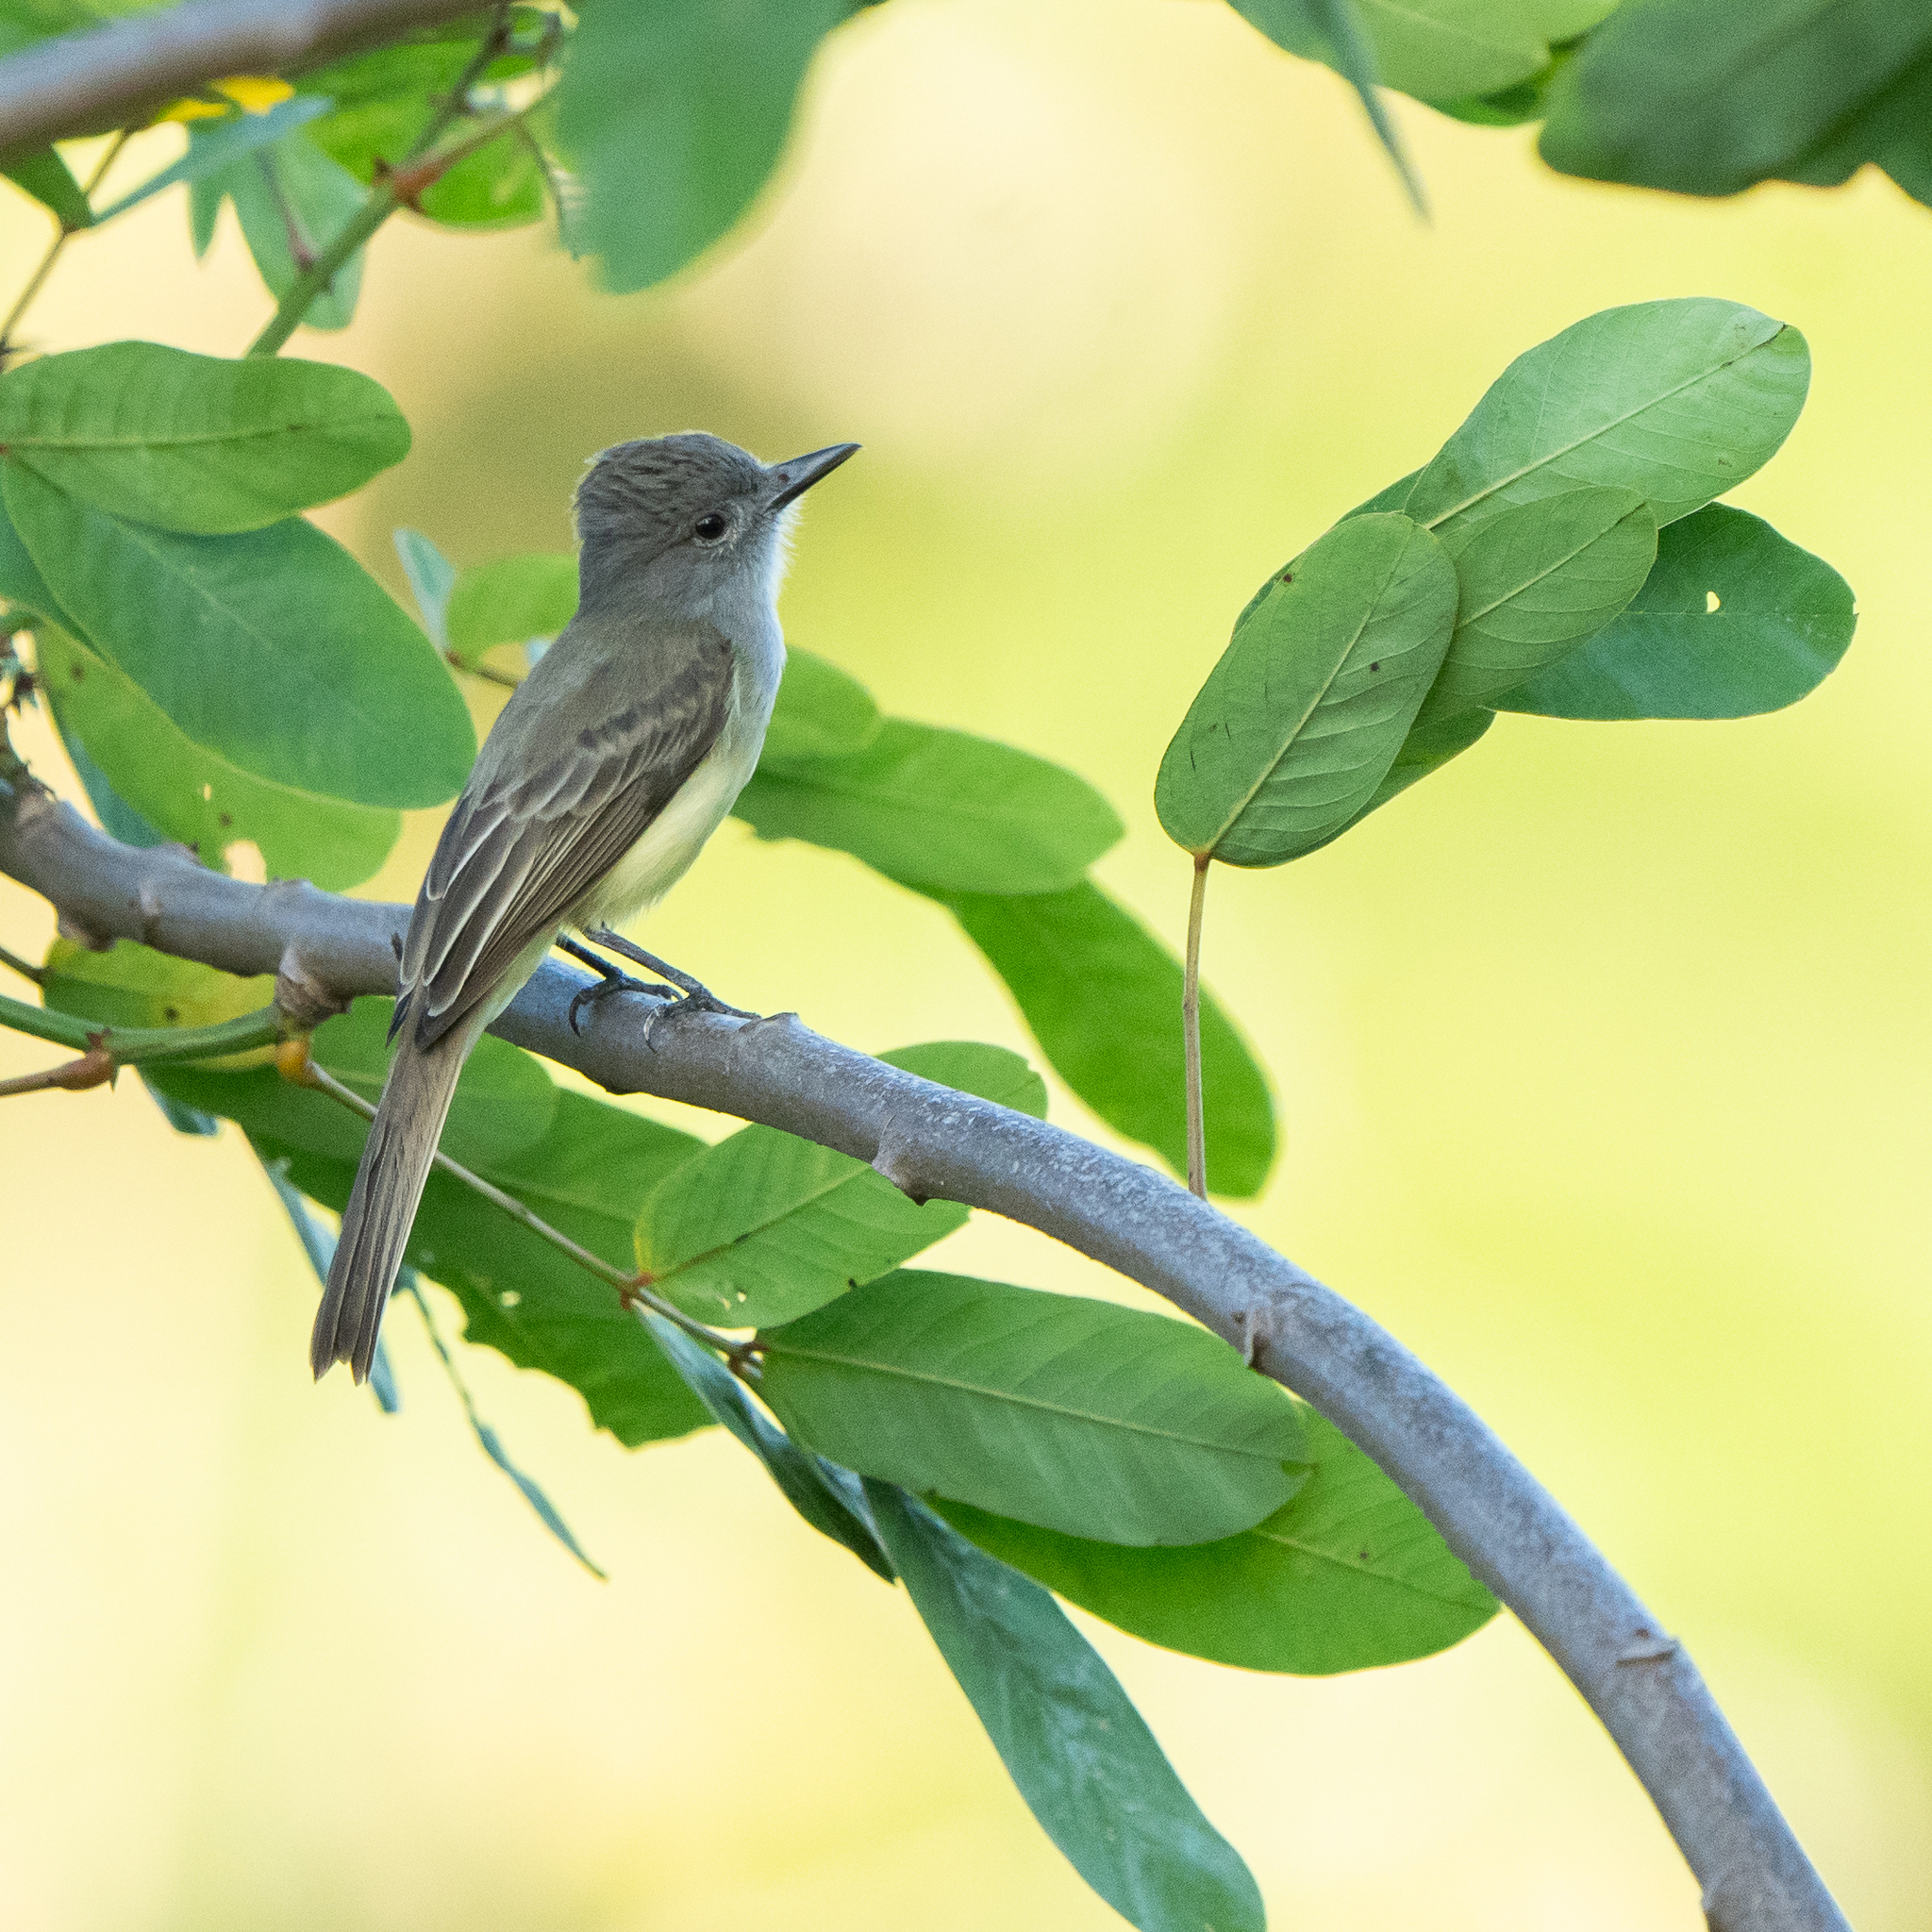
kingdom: Animalia
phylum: Chordata
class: Aves
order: Passeriformes
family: Tyrannidae
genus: Myiarchus
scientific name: Myiarchus panamensis
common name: Panama flycatcher
